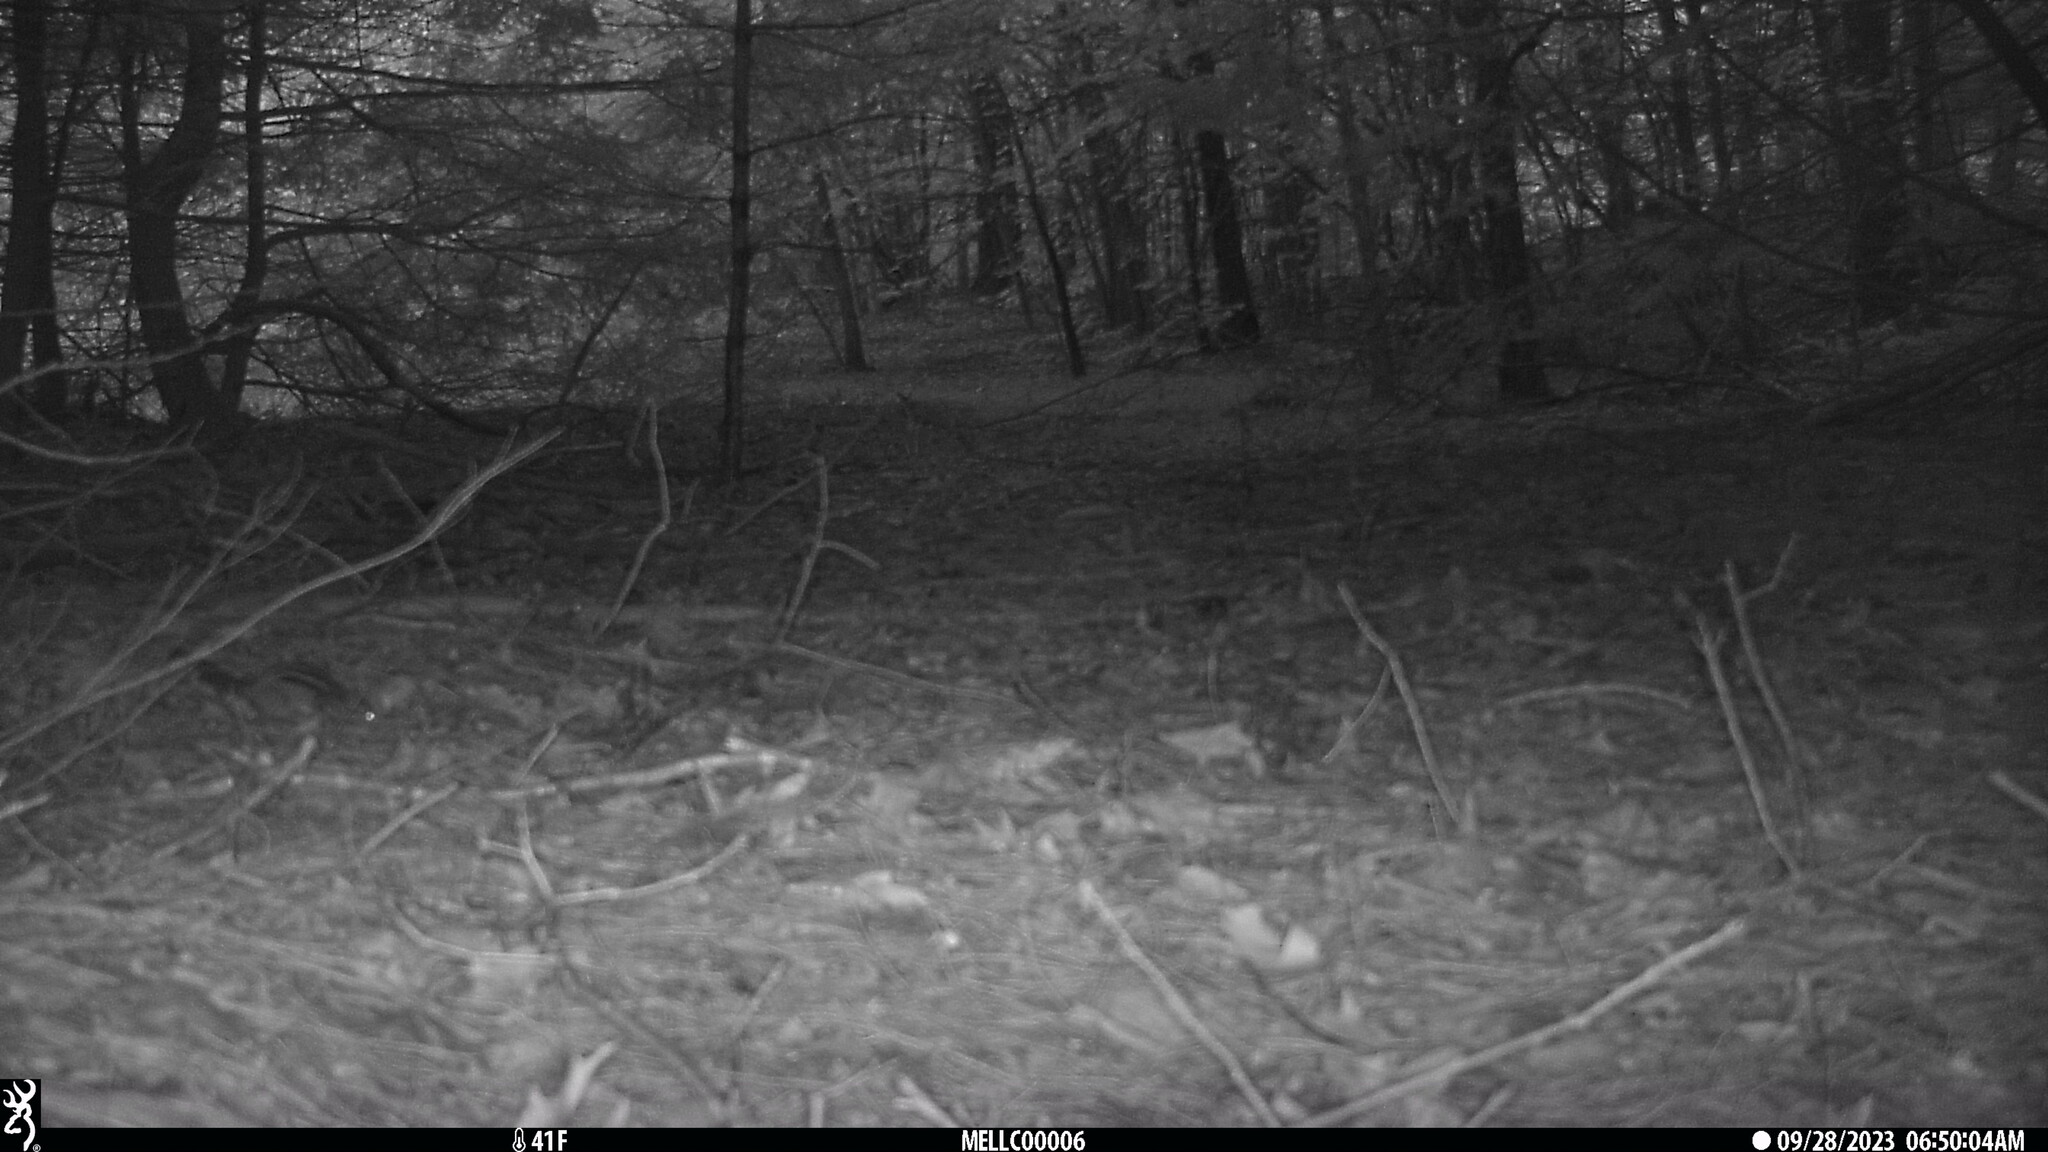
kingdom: Animalia
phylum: Chordata
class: Mammalia
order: Rodentia
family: Sciuridae
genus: Tamias
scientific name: Tamias striatus
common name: Eastern chipmunk
